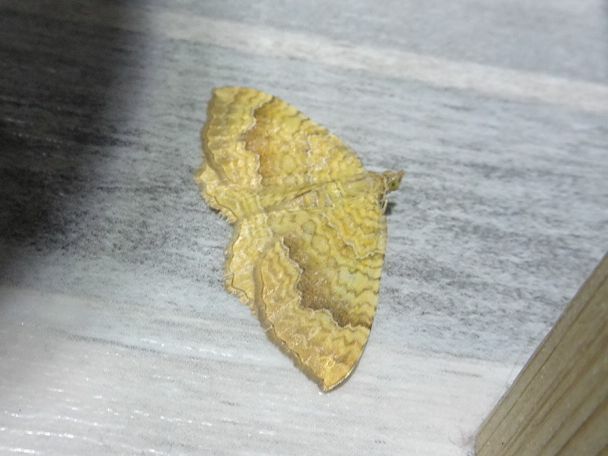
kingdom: Animalia
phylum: Arthropoda
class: Insecta
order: Lepidoptera
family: Geometridae
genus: Camptogramma
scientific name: Camptogramma bilineata
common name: Yellow shell
